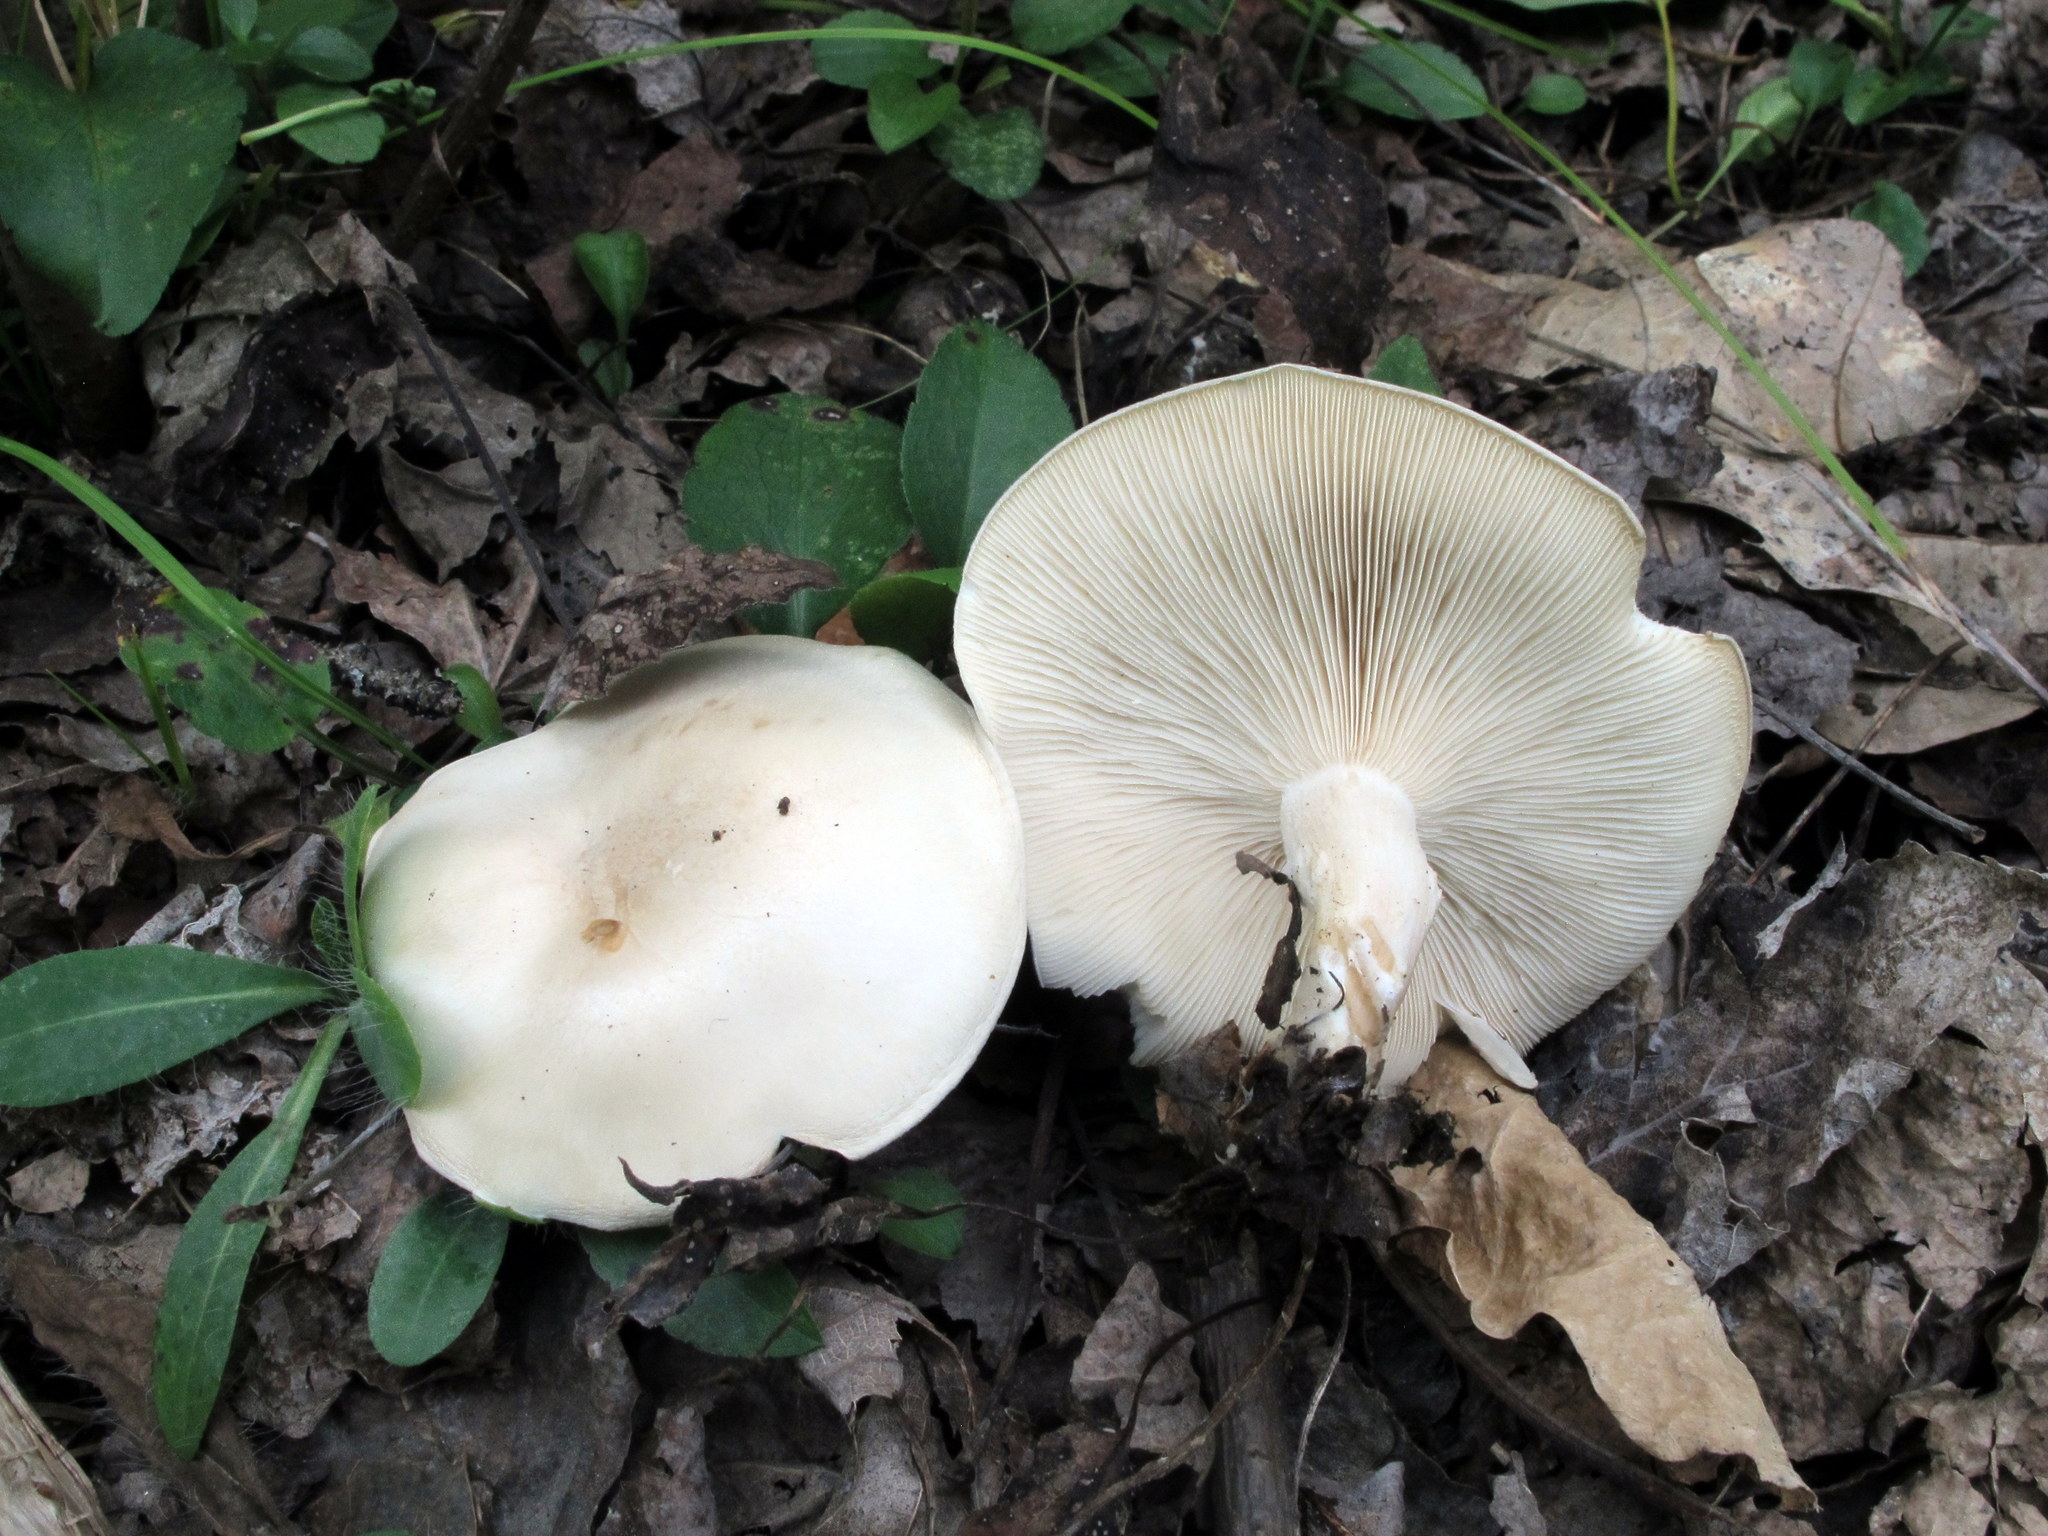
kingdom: Fungi
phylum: Basidiomycota
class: Agaricomycetes
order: Agaricales
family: Tricholomataceae
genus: Clitocybe
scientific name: Clitocybe fragrans
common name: Fragrant funnel
